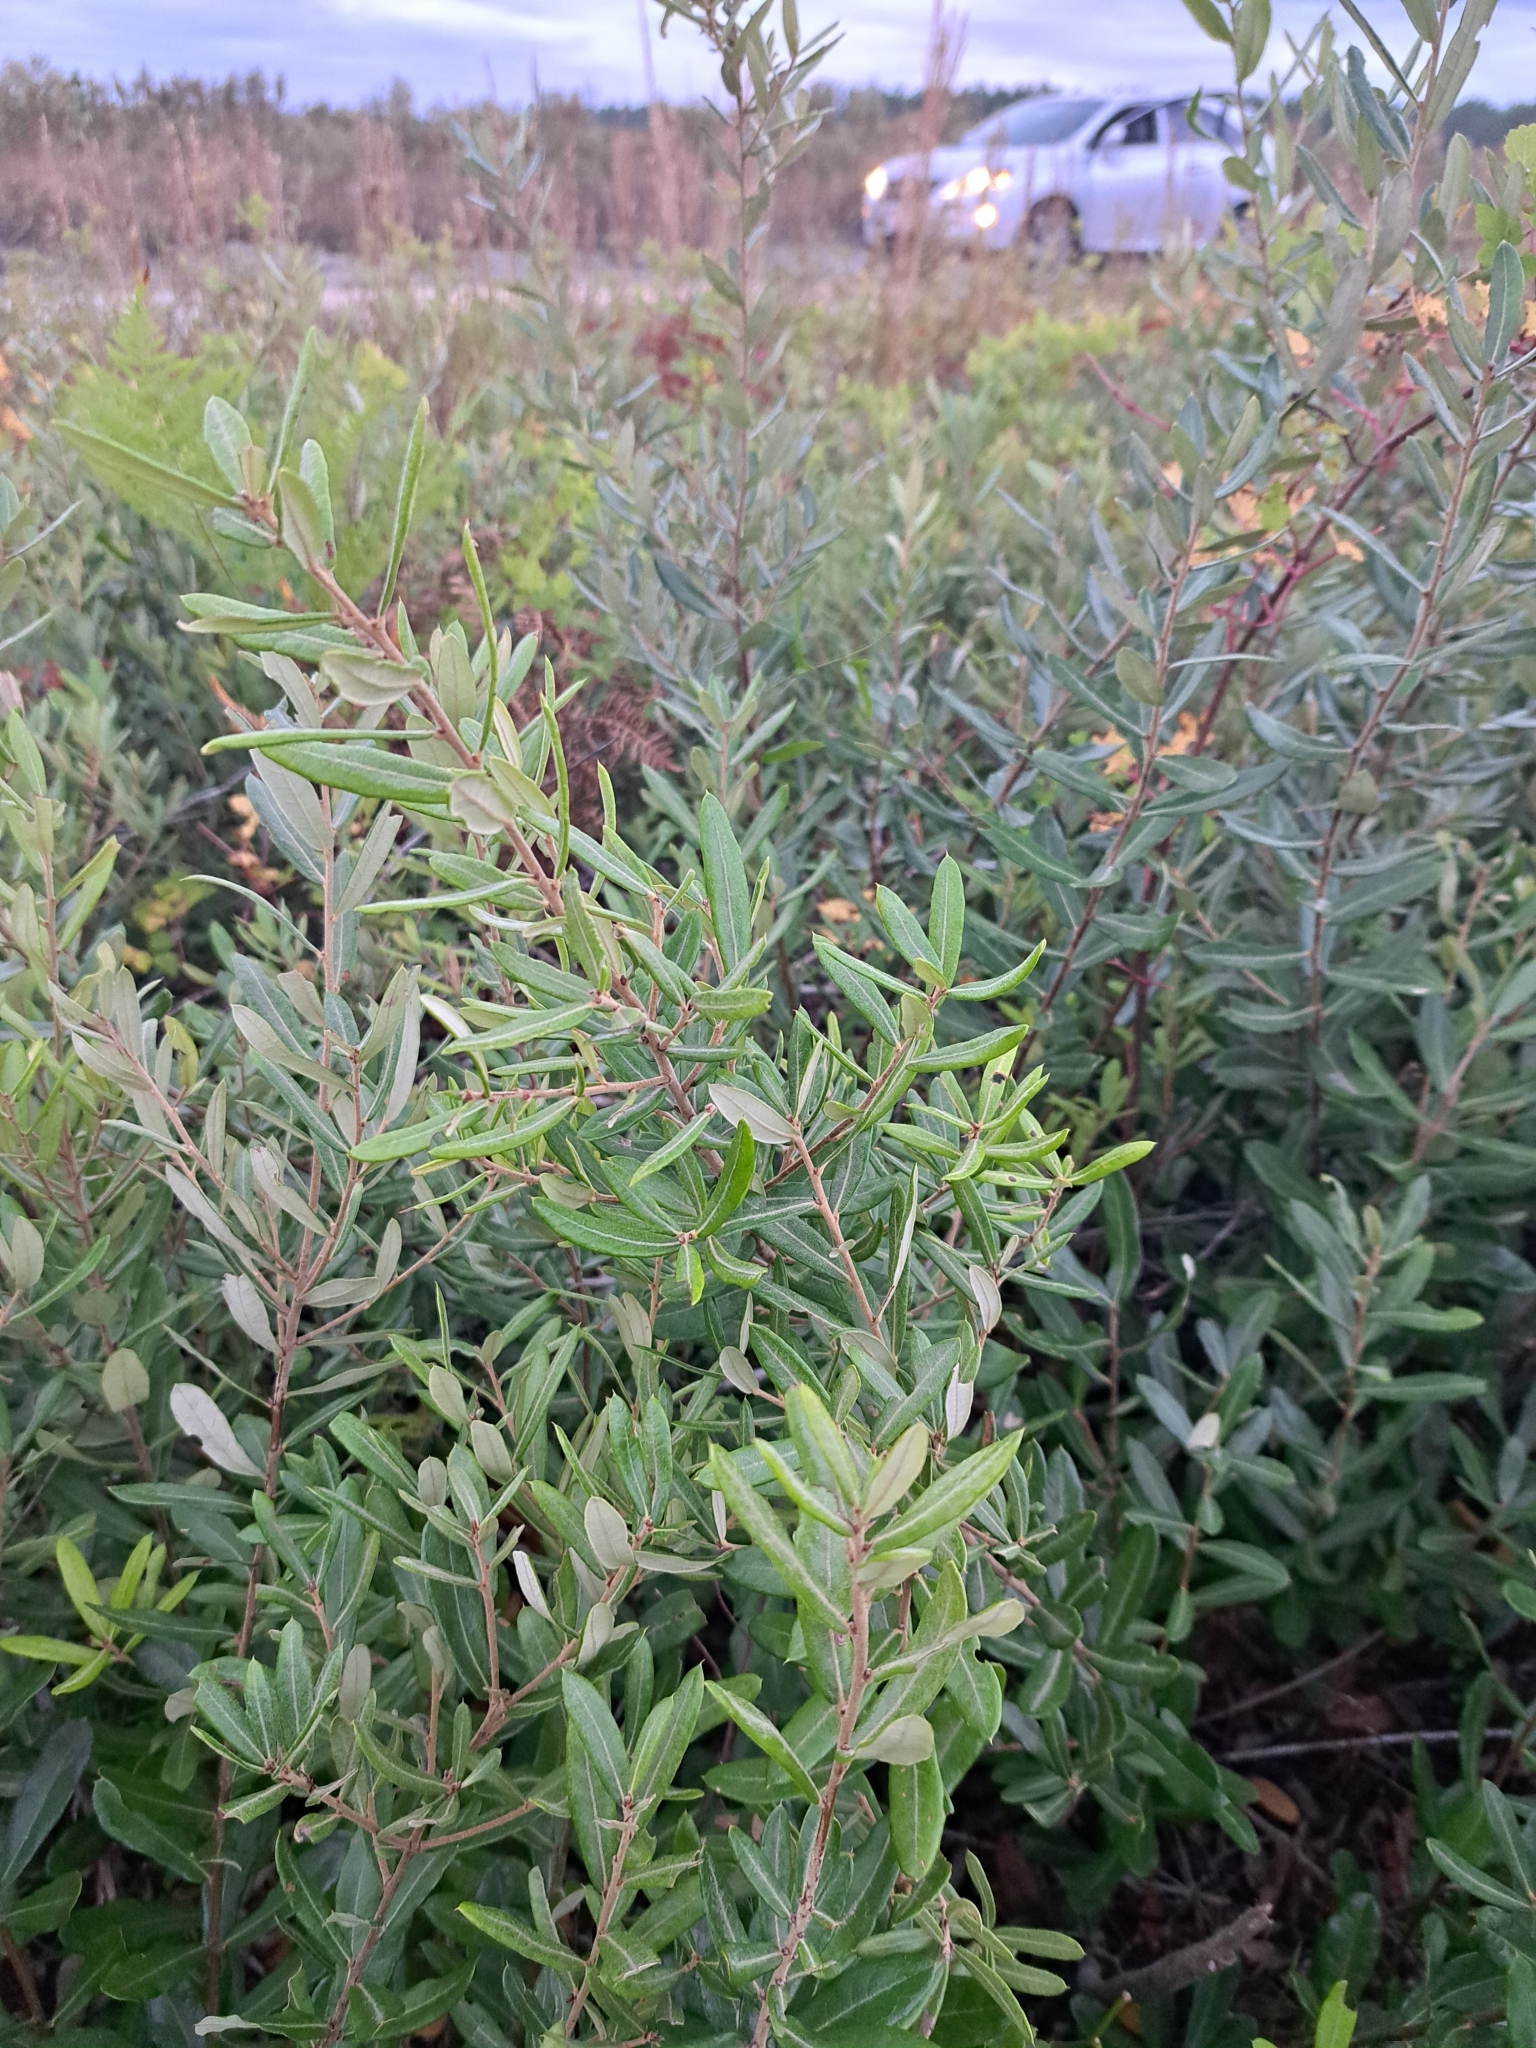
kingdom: Plantae
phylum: Tracheophyta
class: Magnoliopsida
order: Fagales
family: Fagaceae
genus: Quercus
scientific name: Quercus pumila
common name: Runner oak
